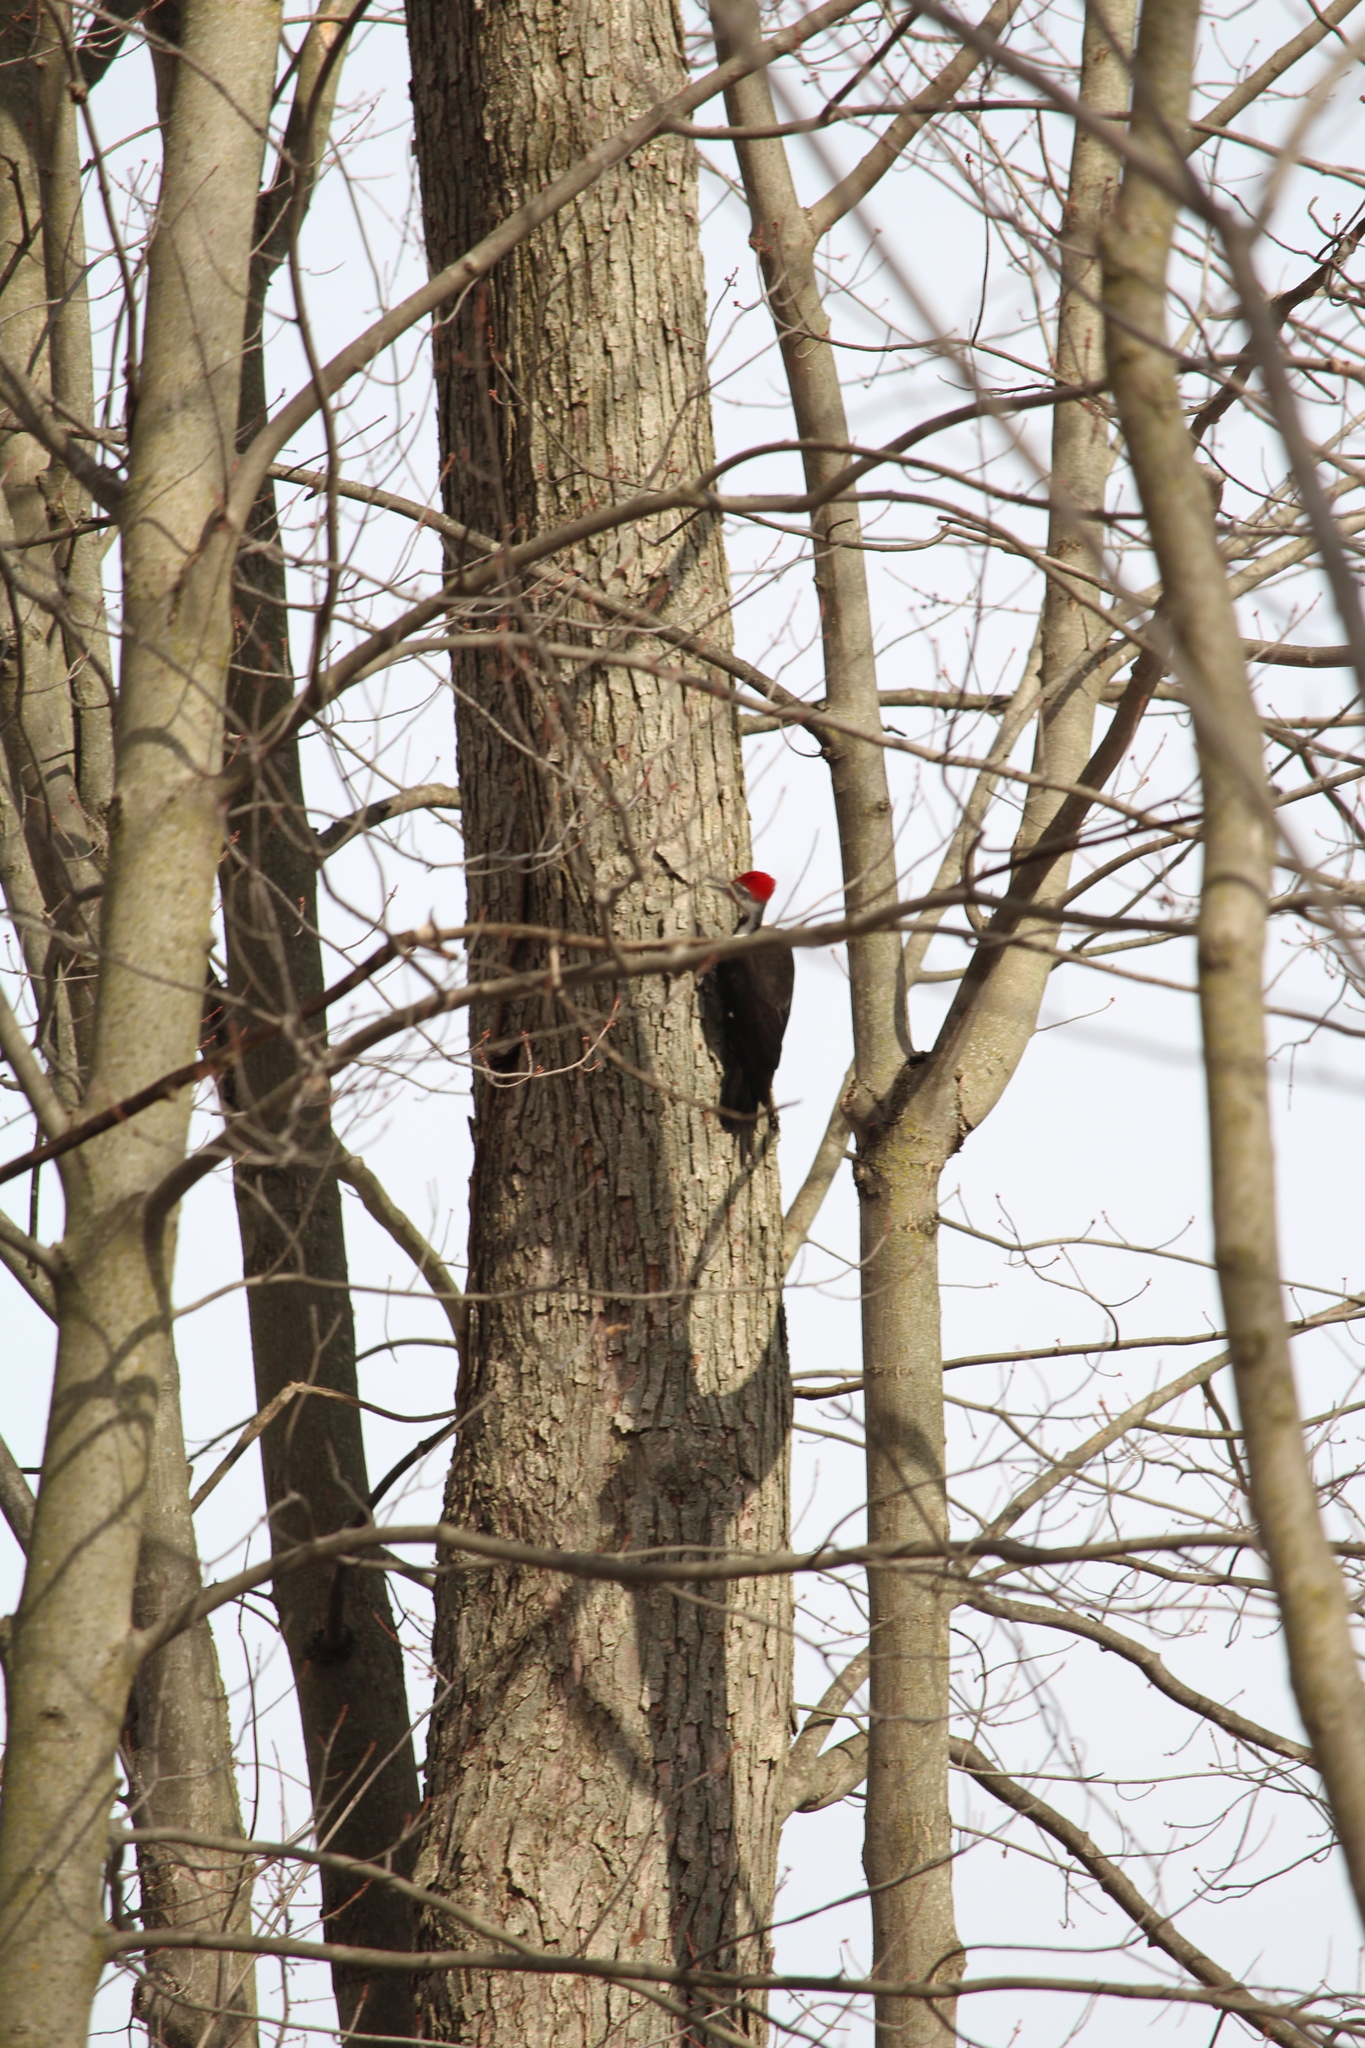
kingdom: Animalia
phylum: Chordata
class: Aves
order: Piciformes
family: Picidae
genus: Dryocopus
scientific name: Dryocopus pileatus
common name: Pileated woodpecker
